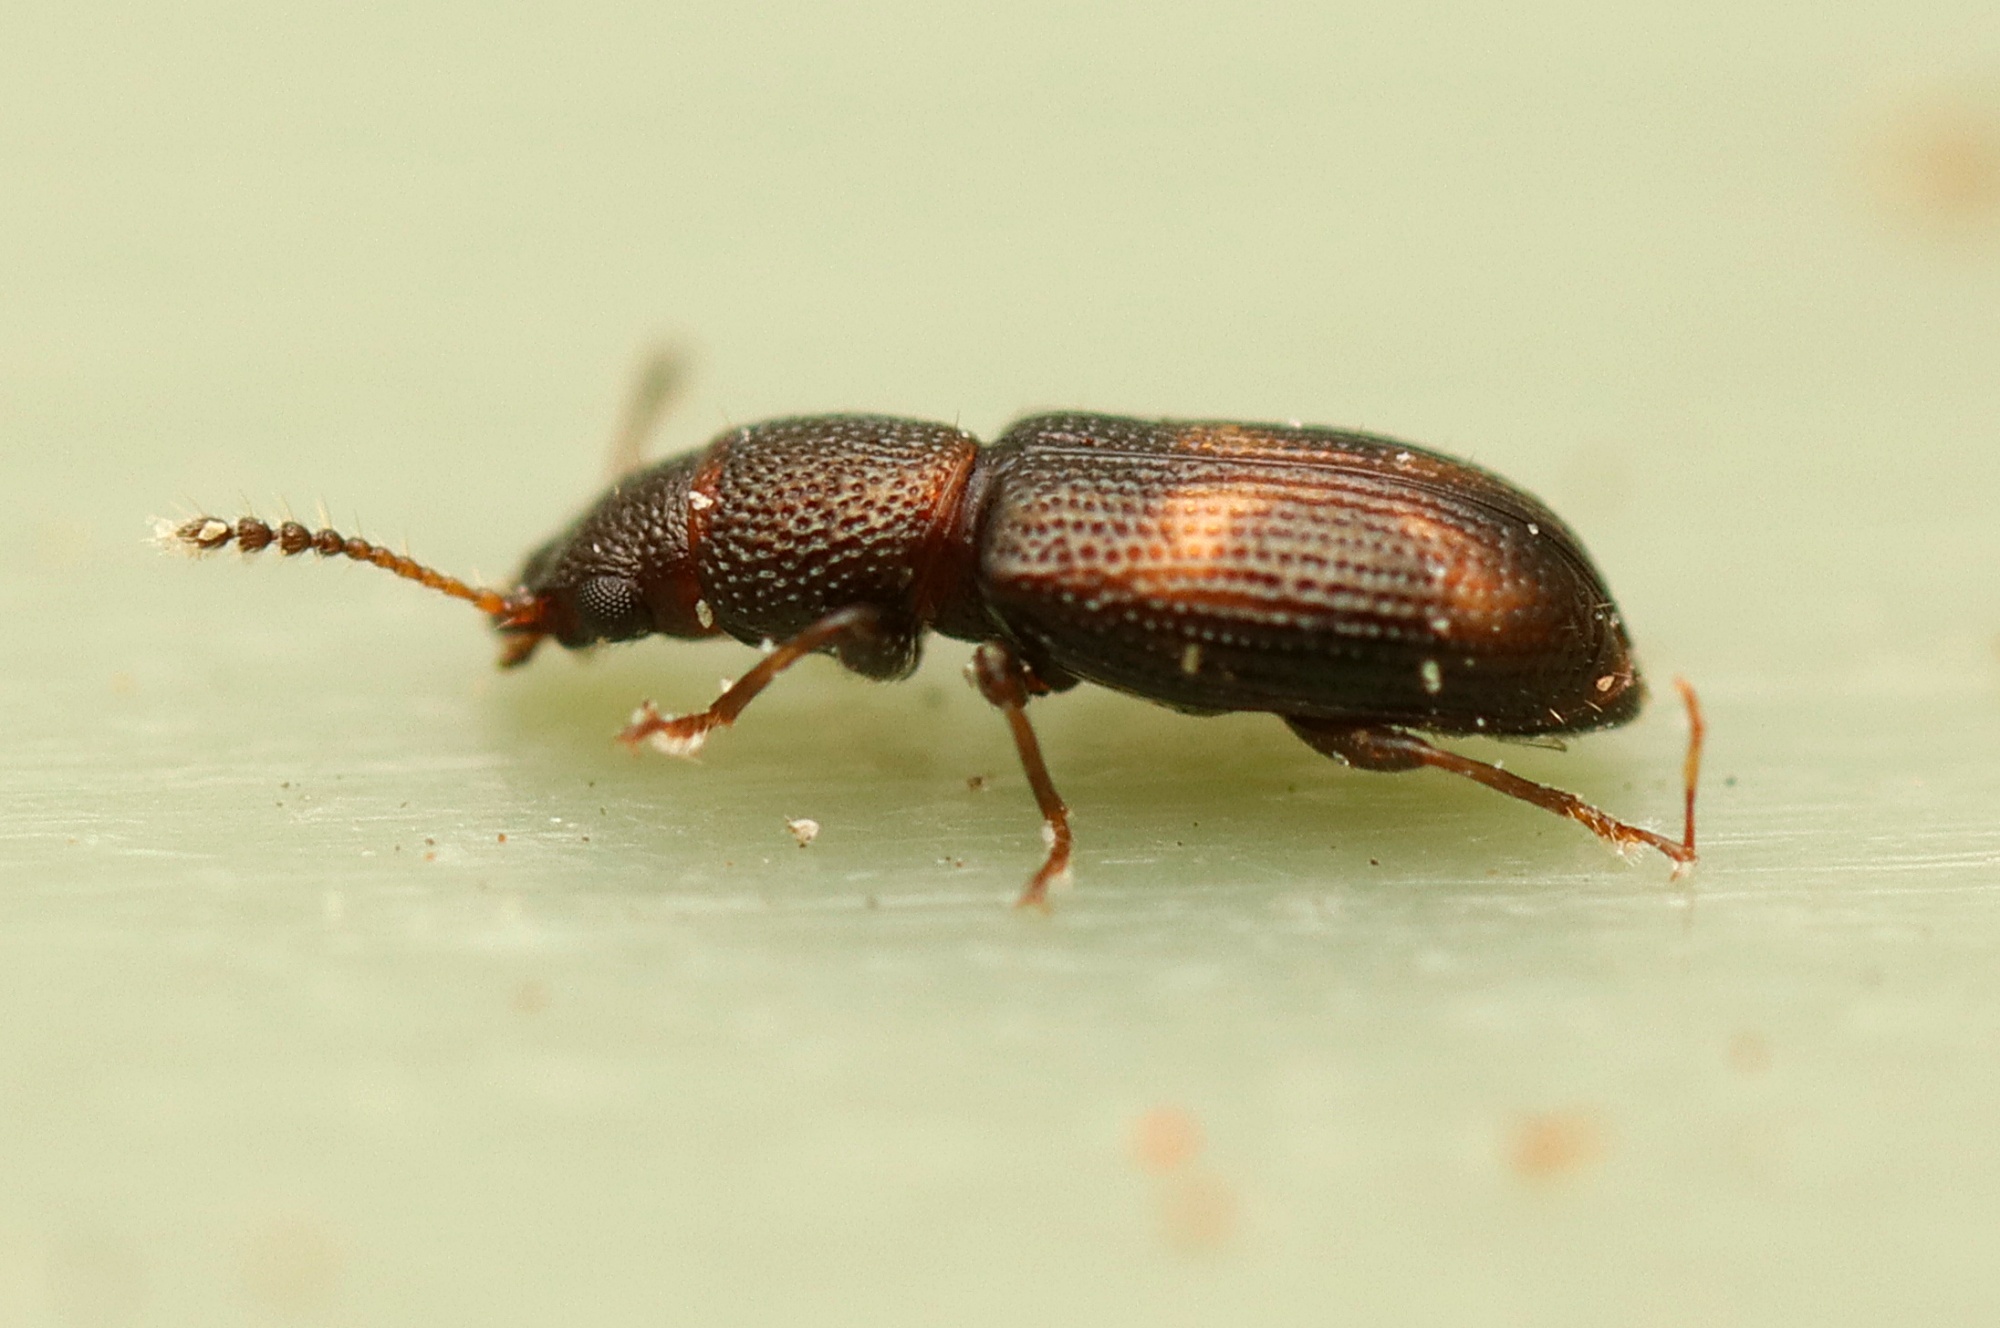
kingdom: Animalia
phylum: Arthropoda
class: Insecta
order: Coleoptera
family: Salpingidae
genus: Salpingus
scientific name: Salpingus
